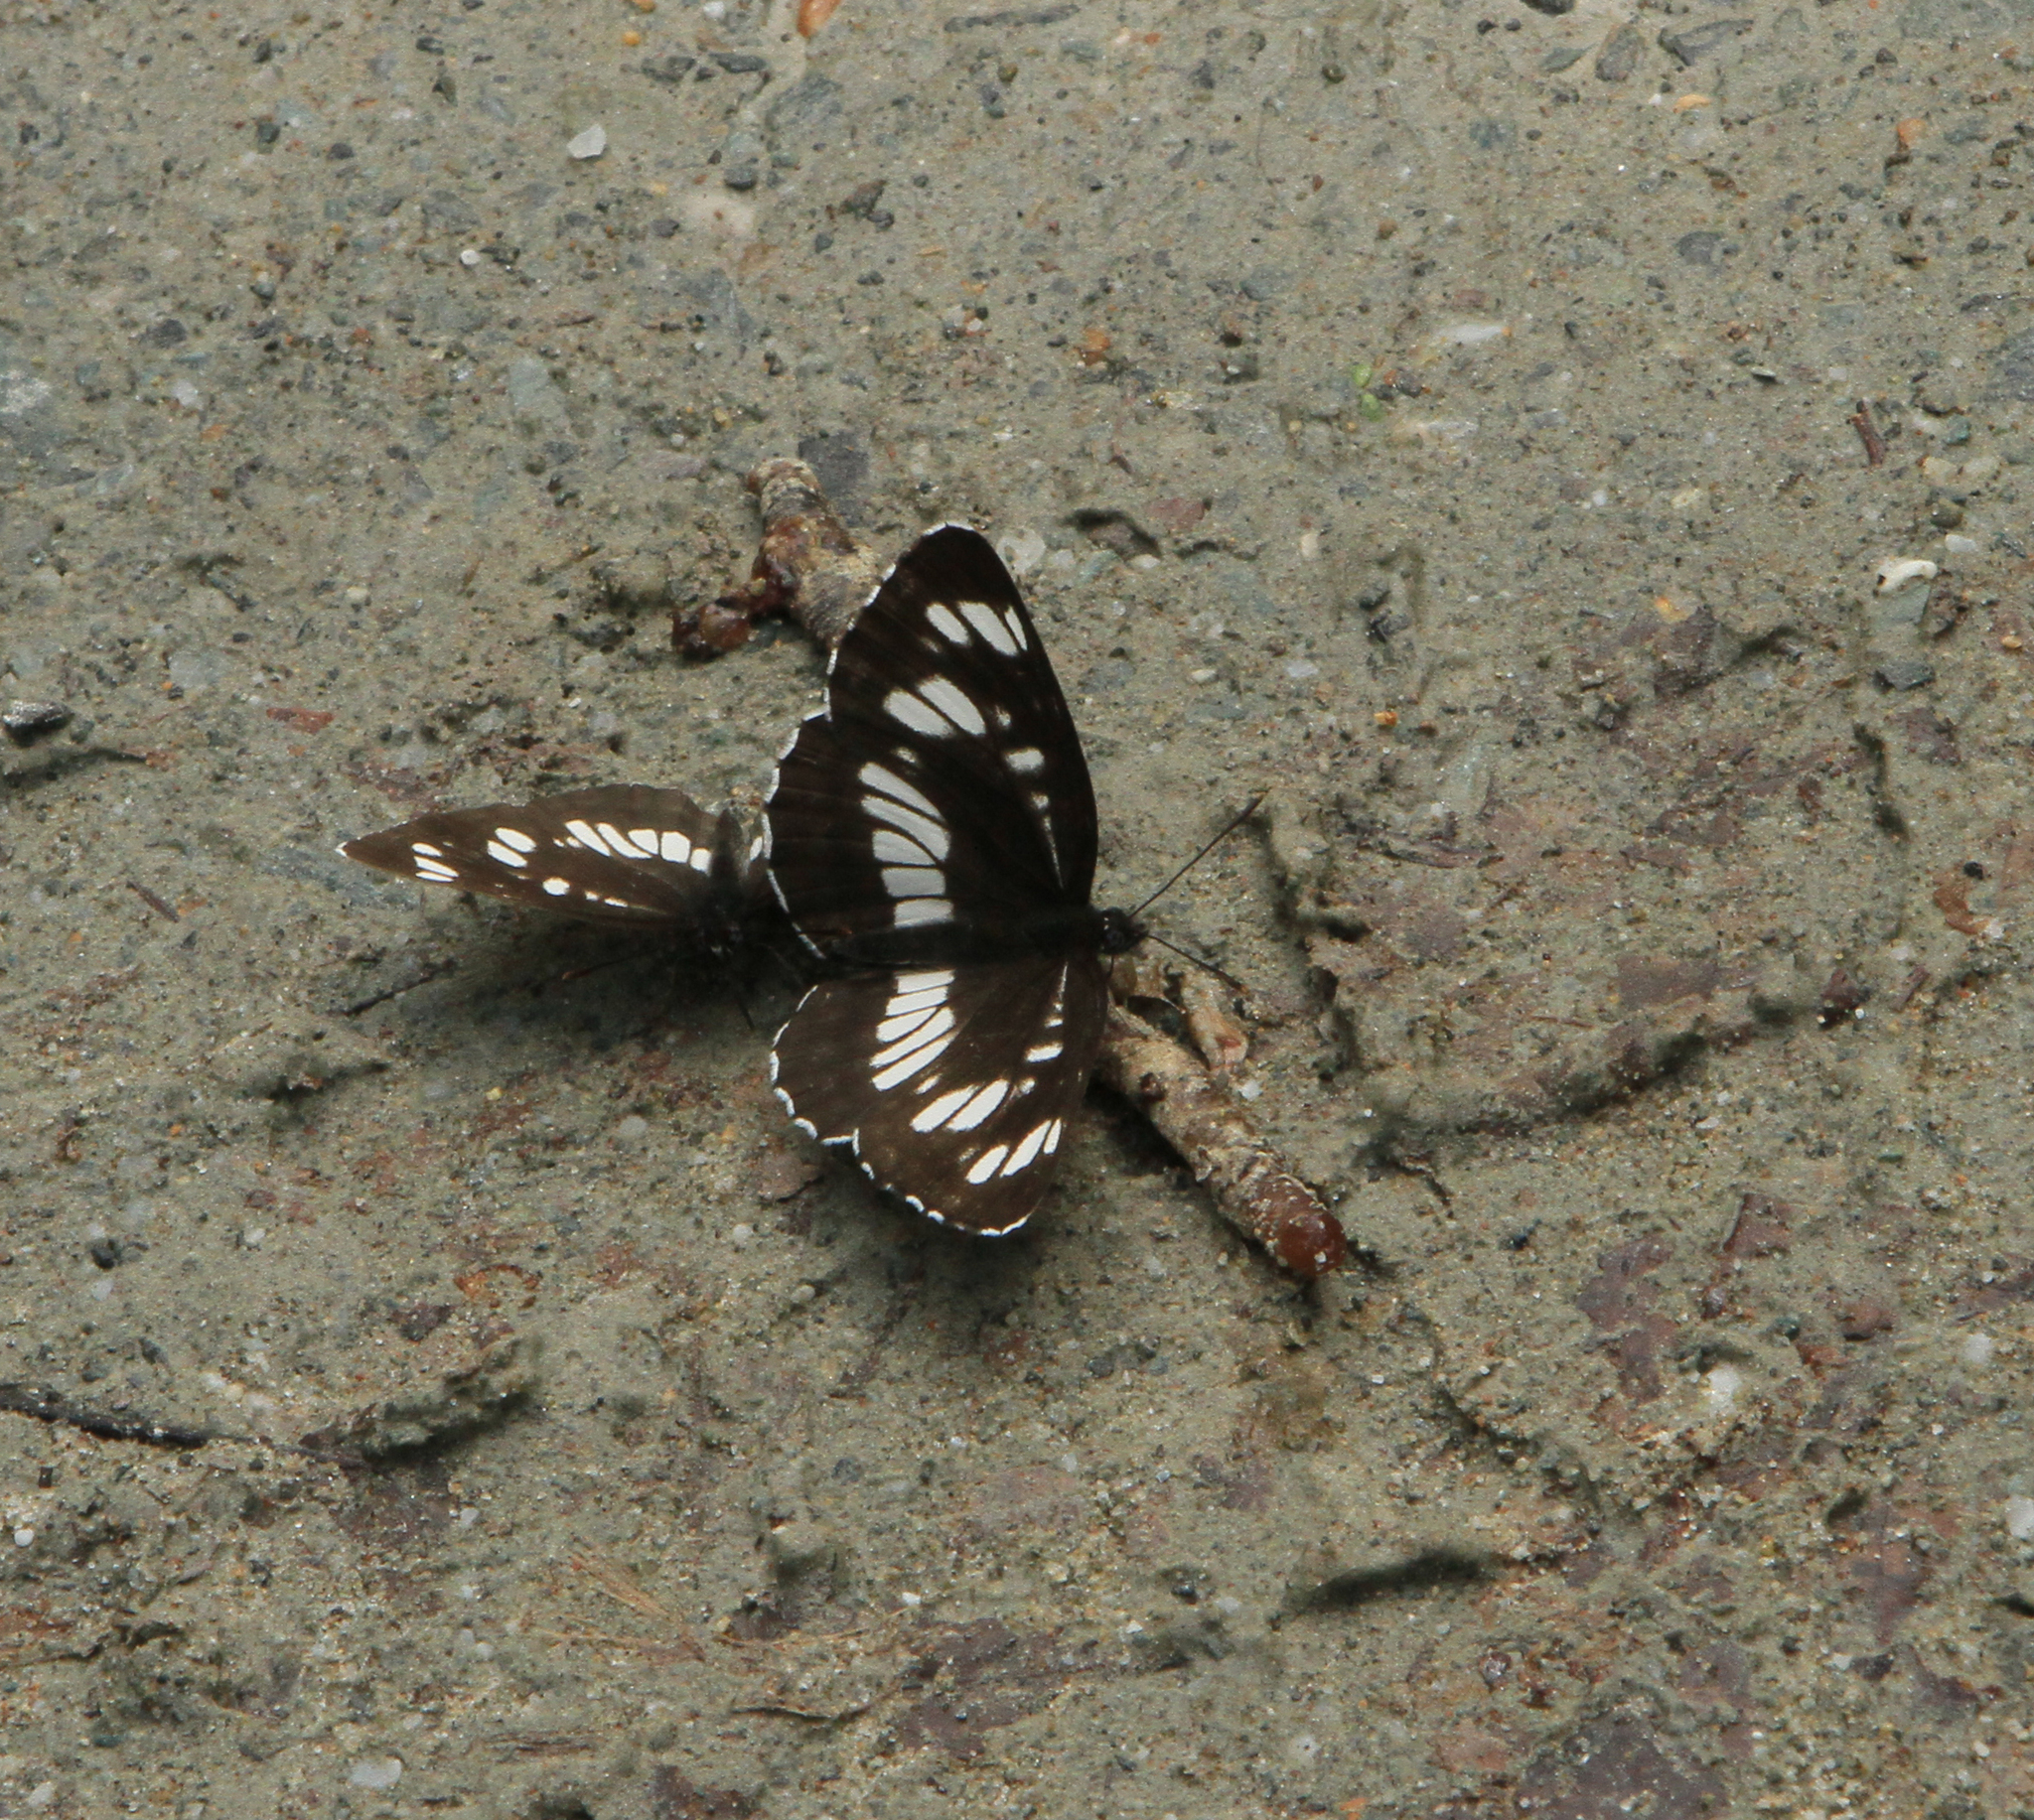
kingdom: Animalia
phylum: Arthropoda
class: Insecta
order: Lepidoptera
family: Nymphalidae
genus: Neptis
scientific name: Neptis rivularis
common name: Hungarian glider
